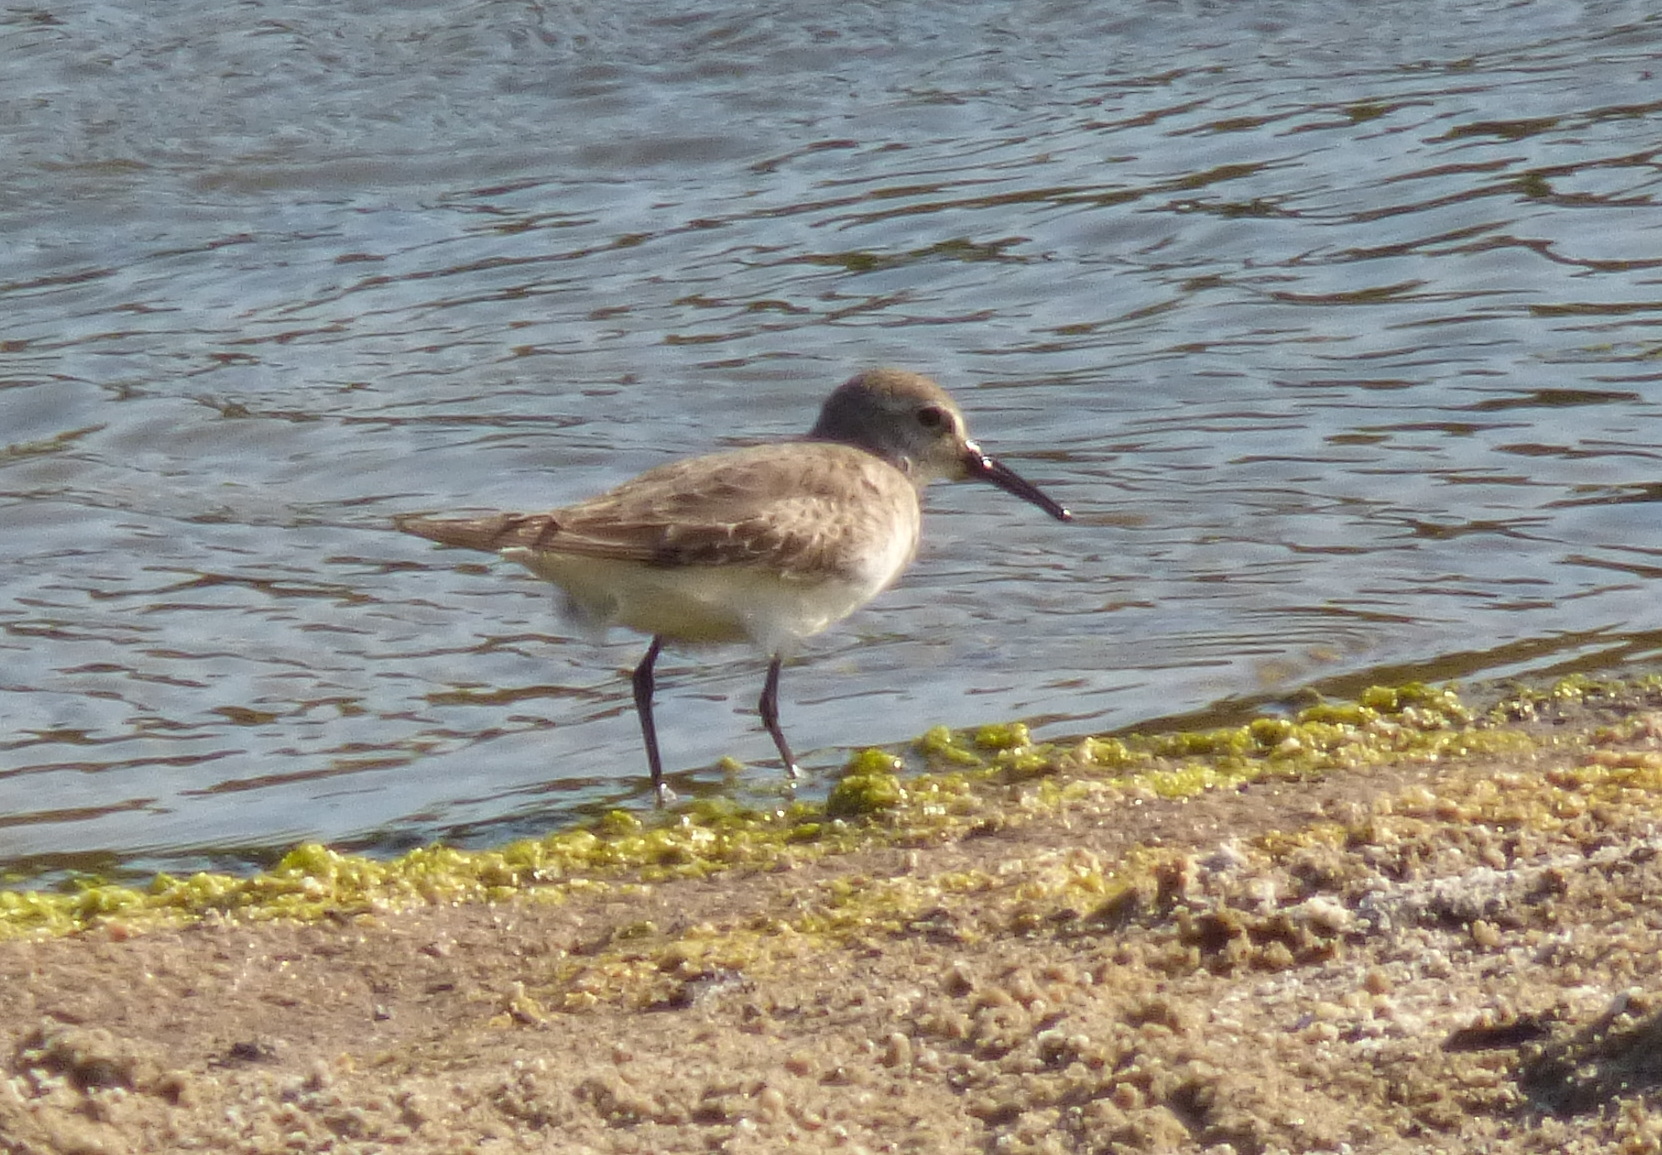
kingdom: Animalia
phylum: Chordata
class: Aves
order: Charadriiformes
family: Scolopacidae
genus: Calidris
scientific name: Calidris bairdii
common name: Baird's sandpiper
